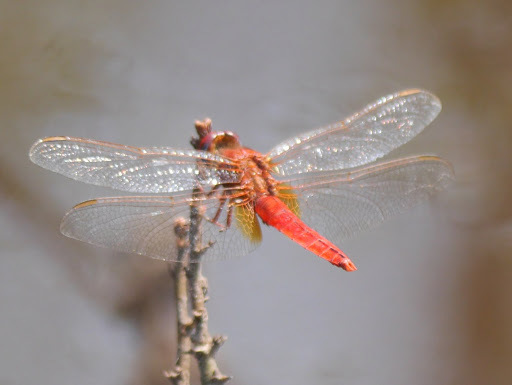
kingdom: Animalia
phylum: Arthropoda
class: Insecta
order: Odonata
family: Libellulidae
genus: Crocothemis
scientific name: Crocothemis erythraea
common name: Scarlet dragonfly
